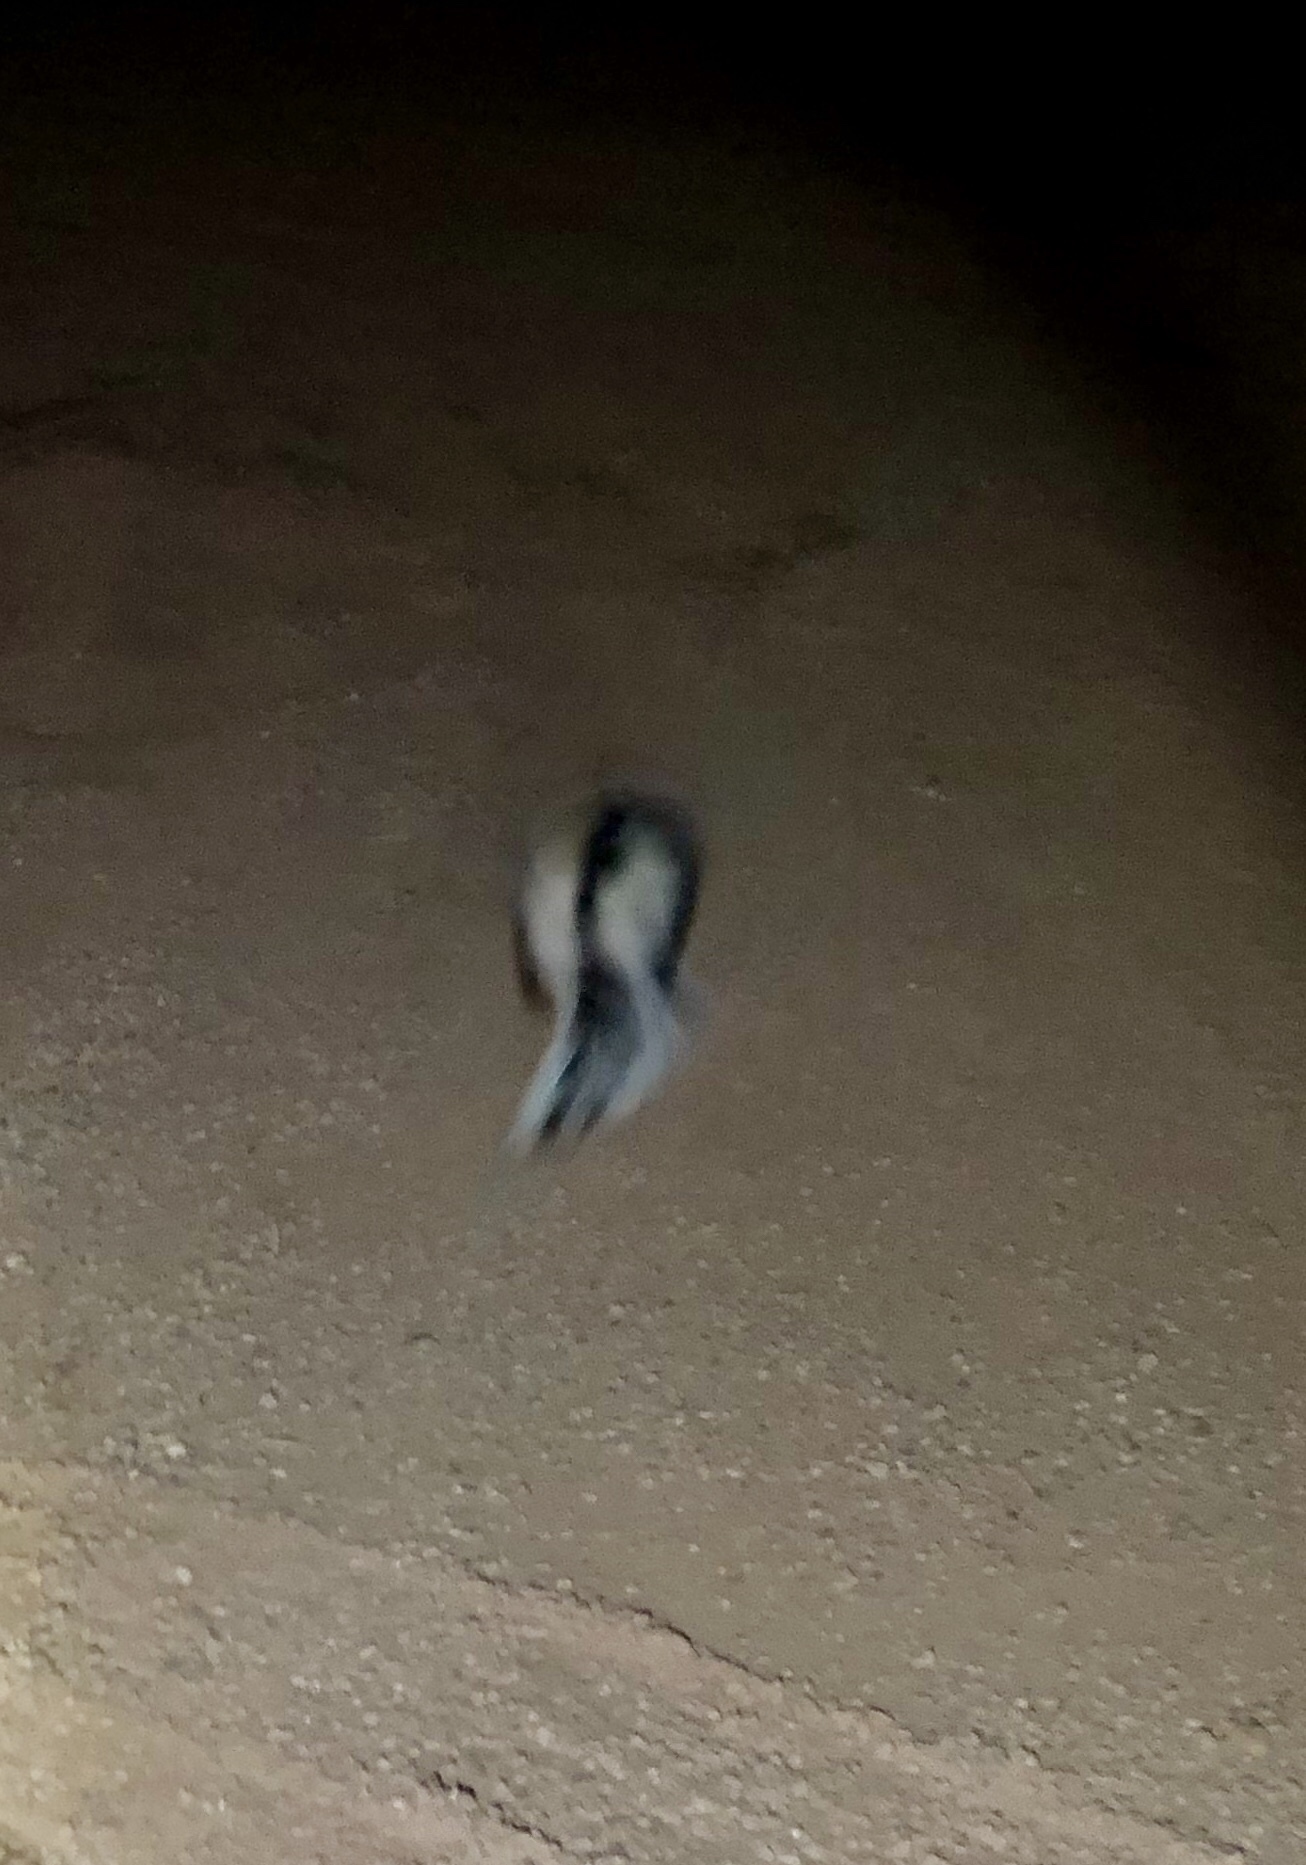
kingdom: Animalia
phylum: Chordata
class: Mammalia
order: Carnivora
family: Mephitidae
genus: Mephitis
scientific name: Mephitis mephitis
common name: Striped skunk
